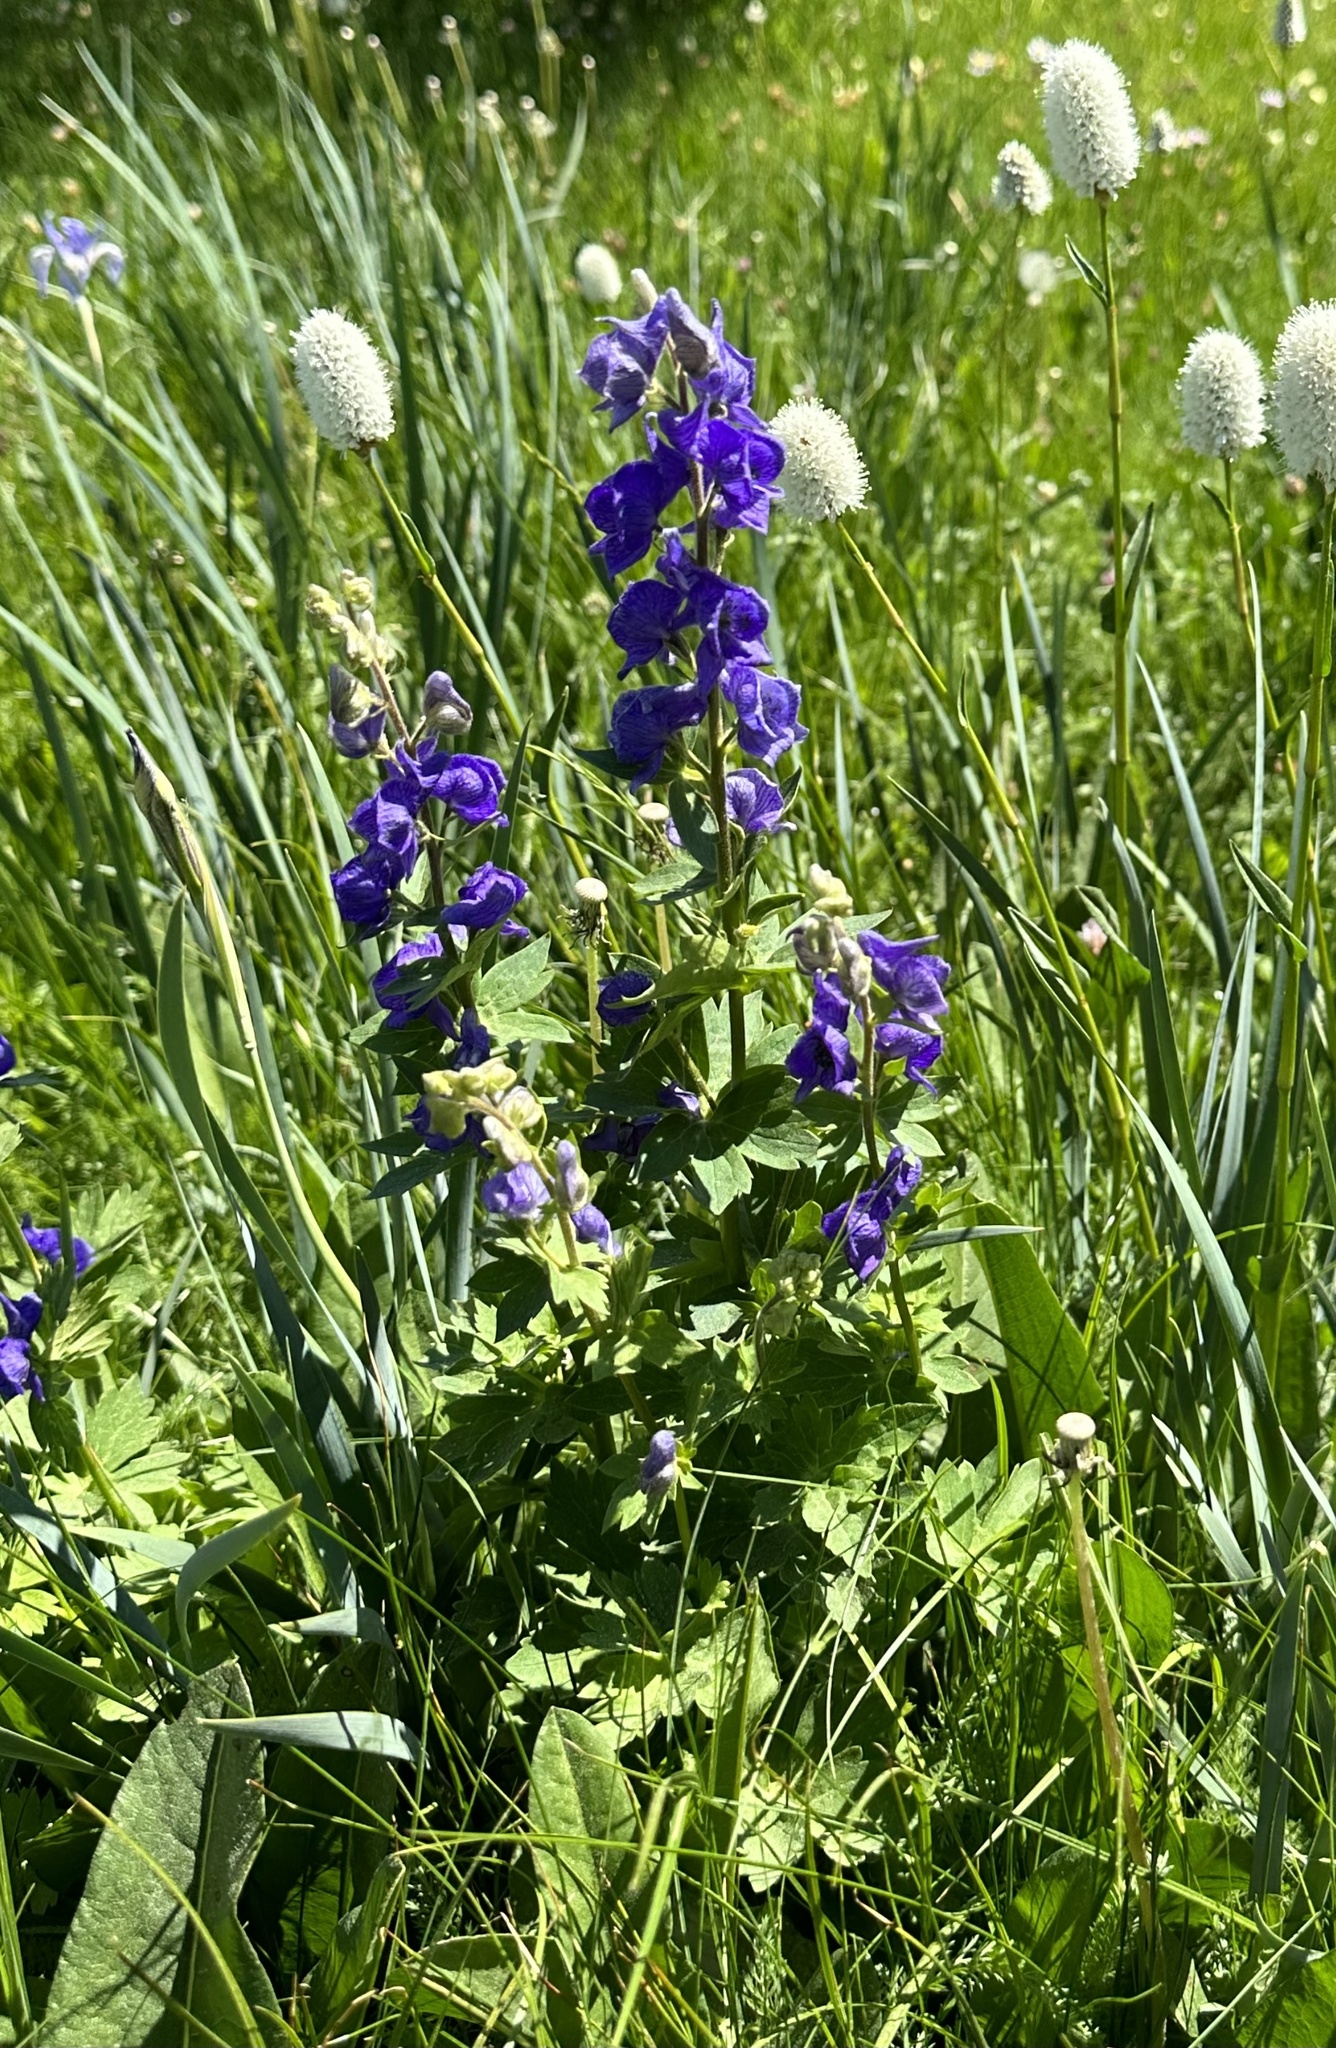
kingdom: Plantae
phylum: Tracheophyta
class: Magnoliopsida
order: Ranunculales
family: Ranunculaceae
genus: Aconitum
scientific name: Aconitum columbianum
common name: Columbia aconite
